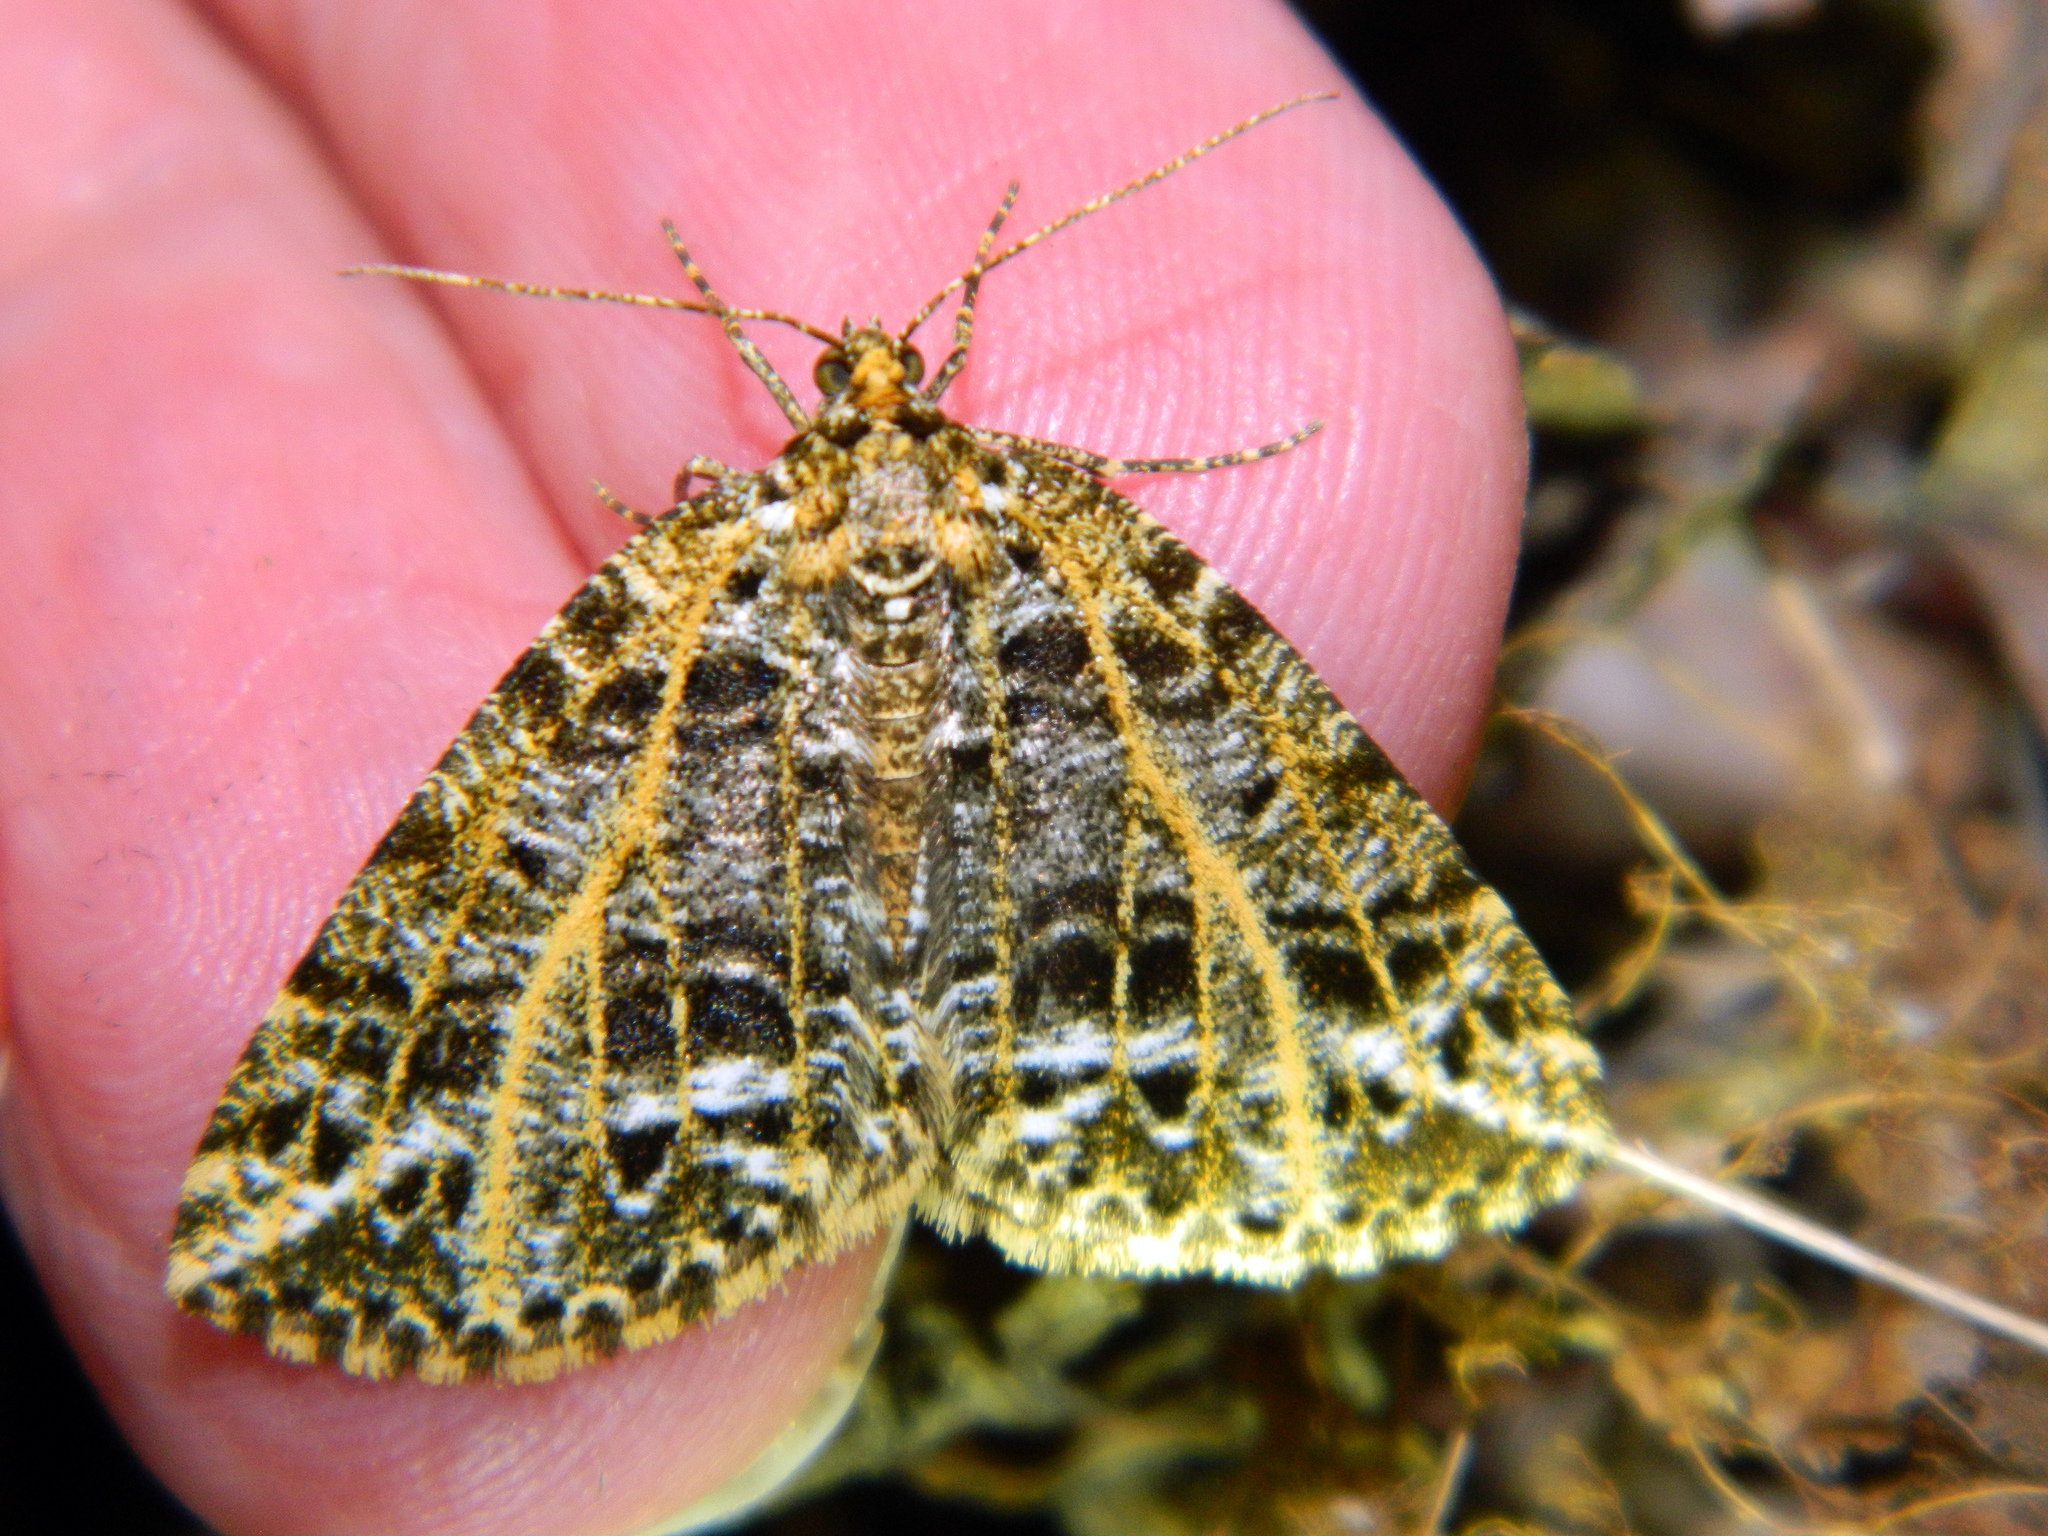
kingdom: Animalia
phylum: Arthropoda
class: Insecta
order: Lepidoptera
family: Geometridae
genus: Orthofidonia
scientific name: Orthofidonia flavivenata
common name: Yellow-veined geometer moth
